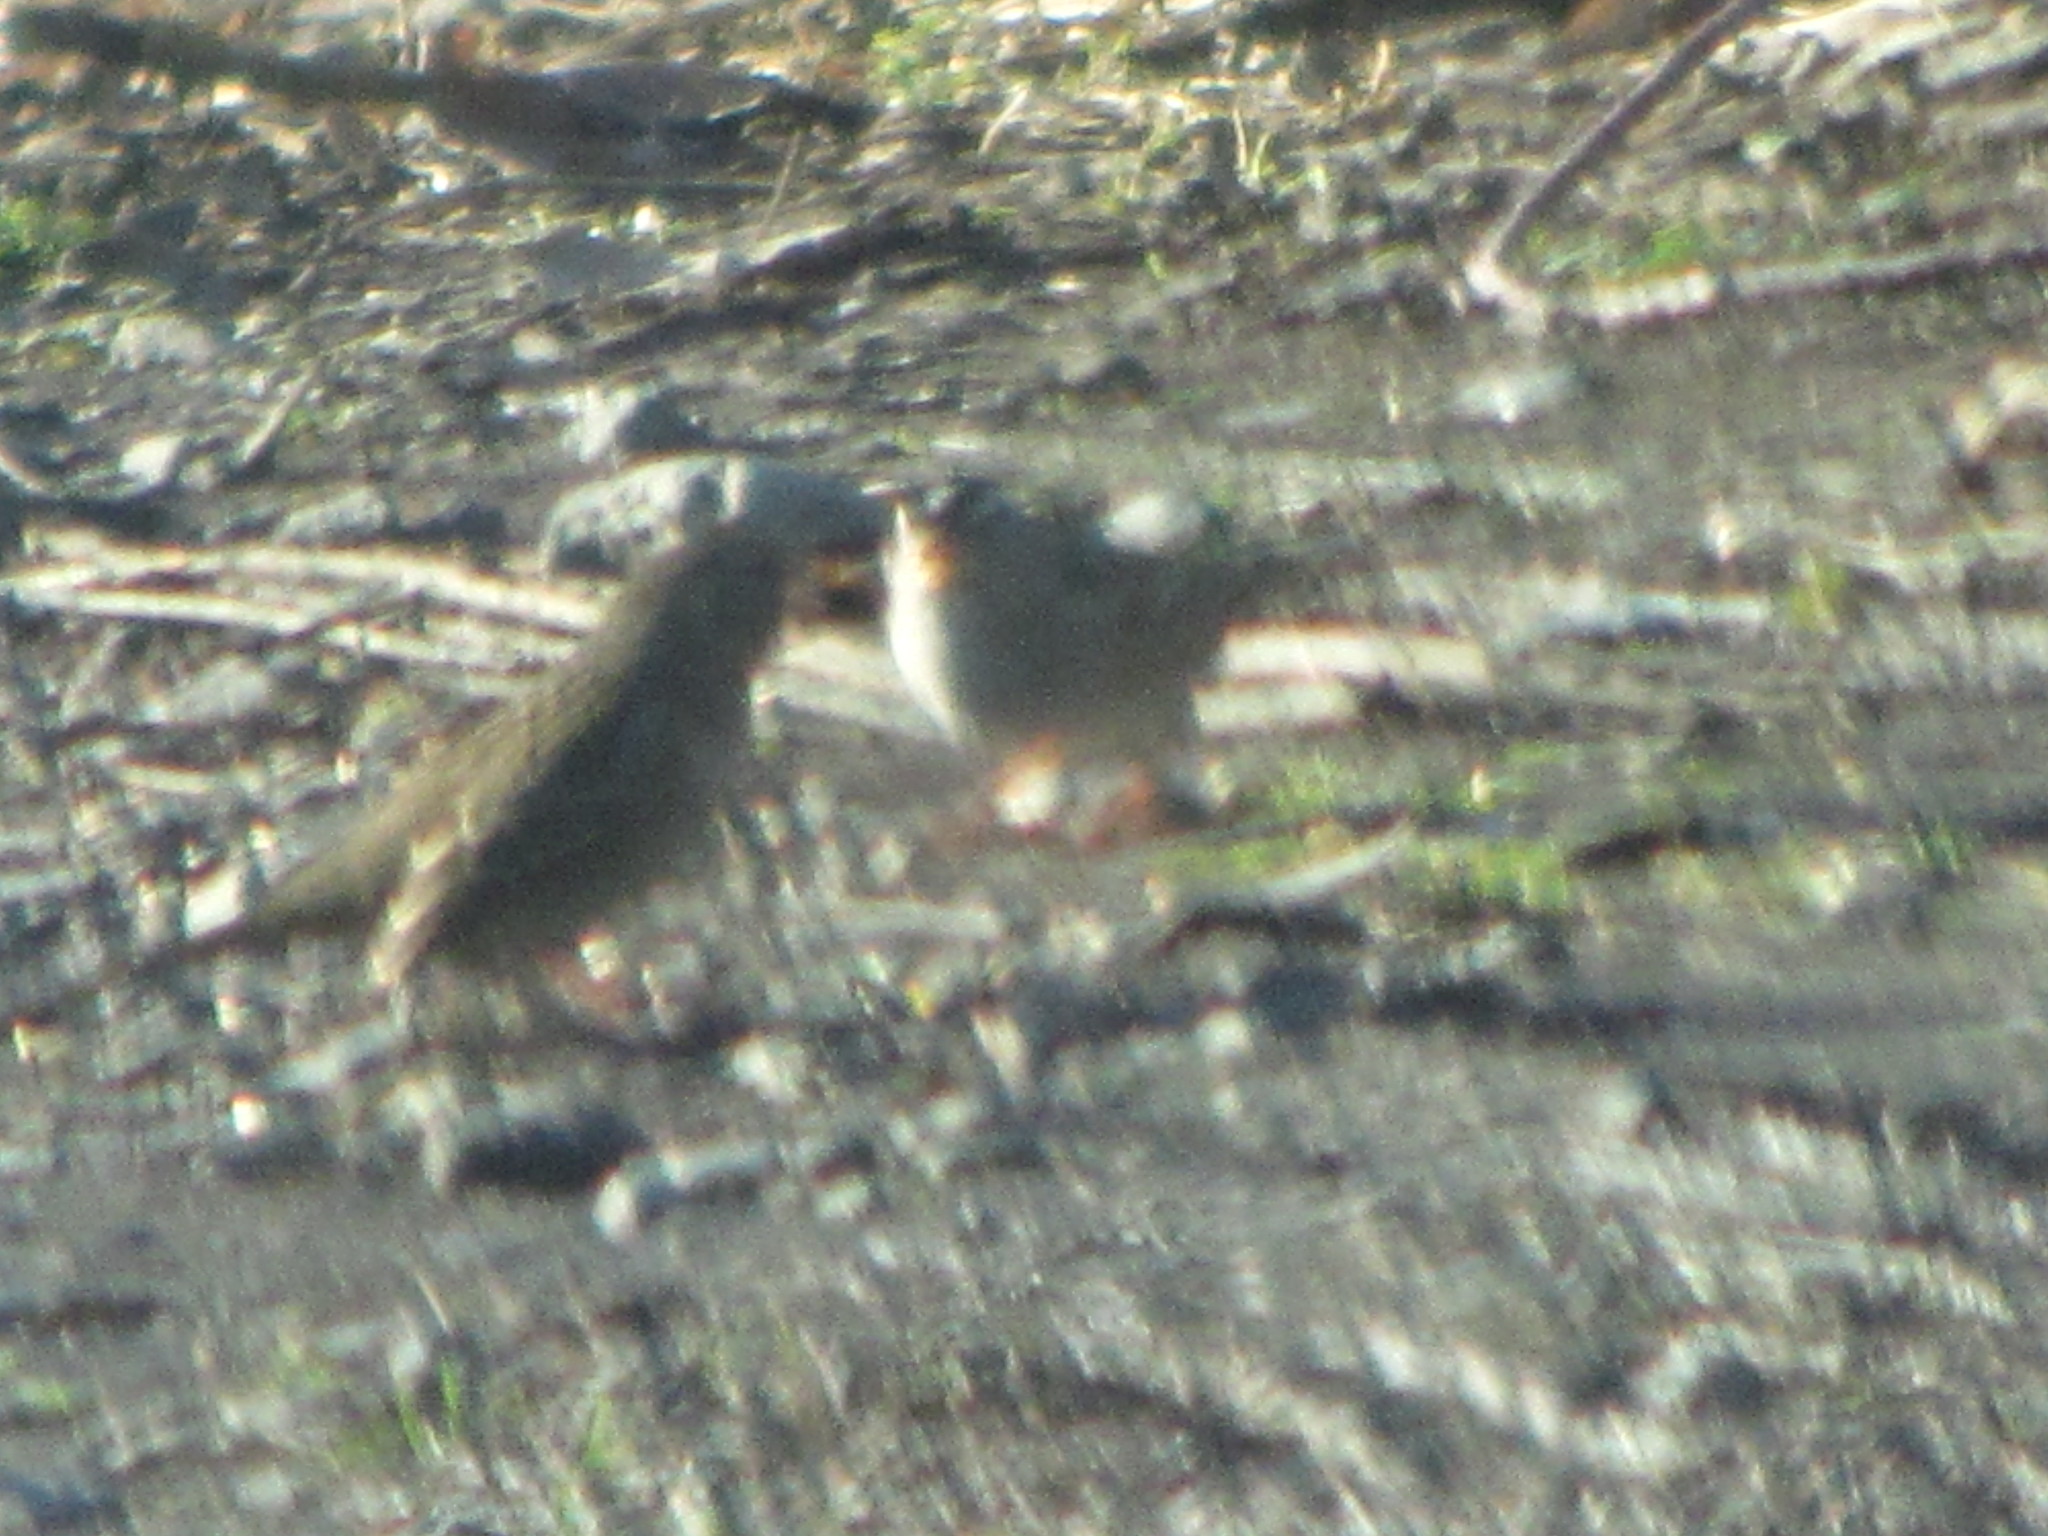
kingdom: Animalia
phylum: Chordata
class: Aves
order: Passeriformes
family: Passerellidae
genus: Zonotrichia
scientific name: Zonotrichia leucophrys
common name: White-crowned sparrow
